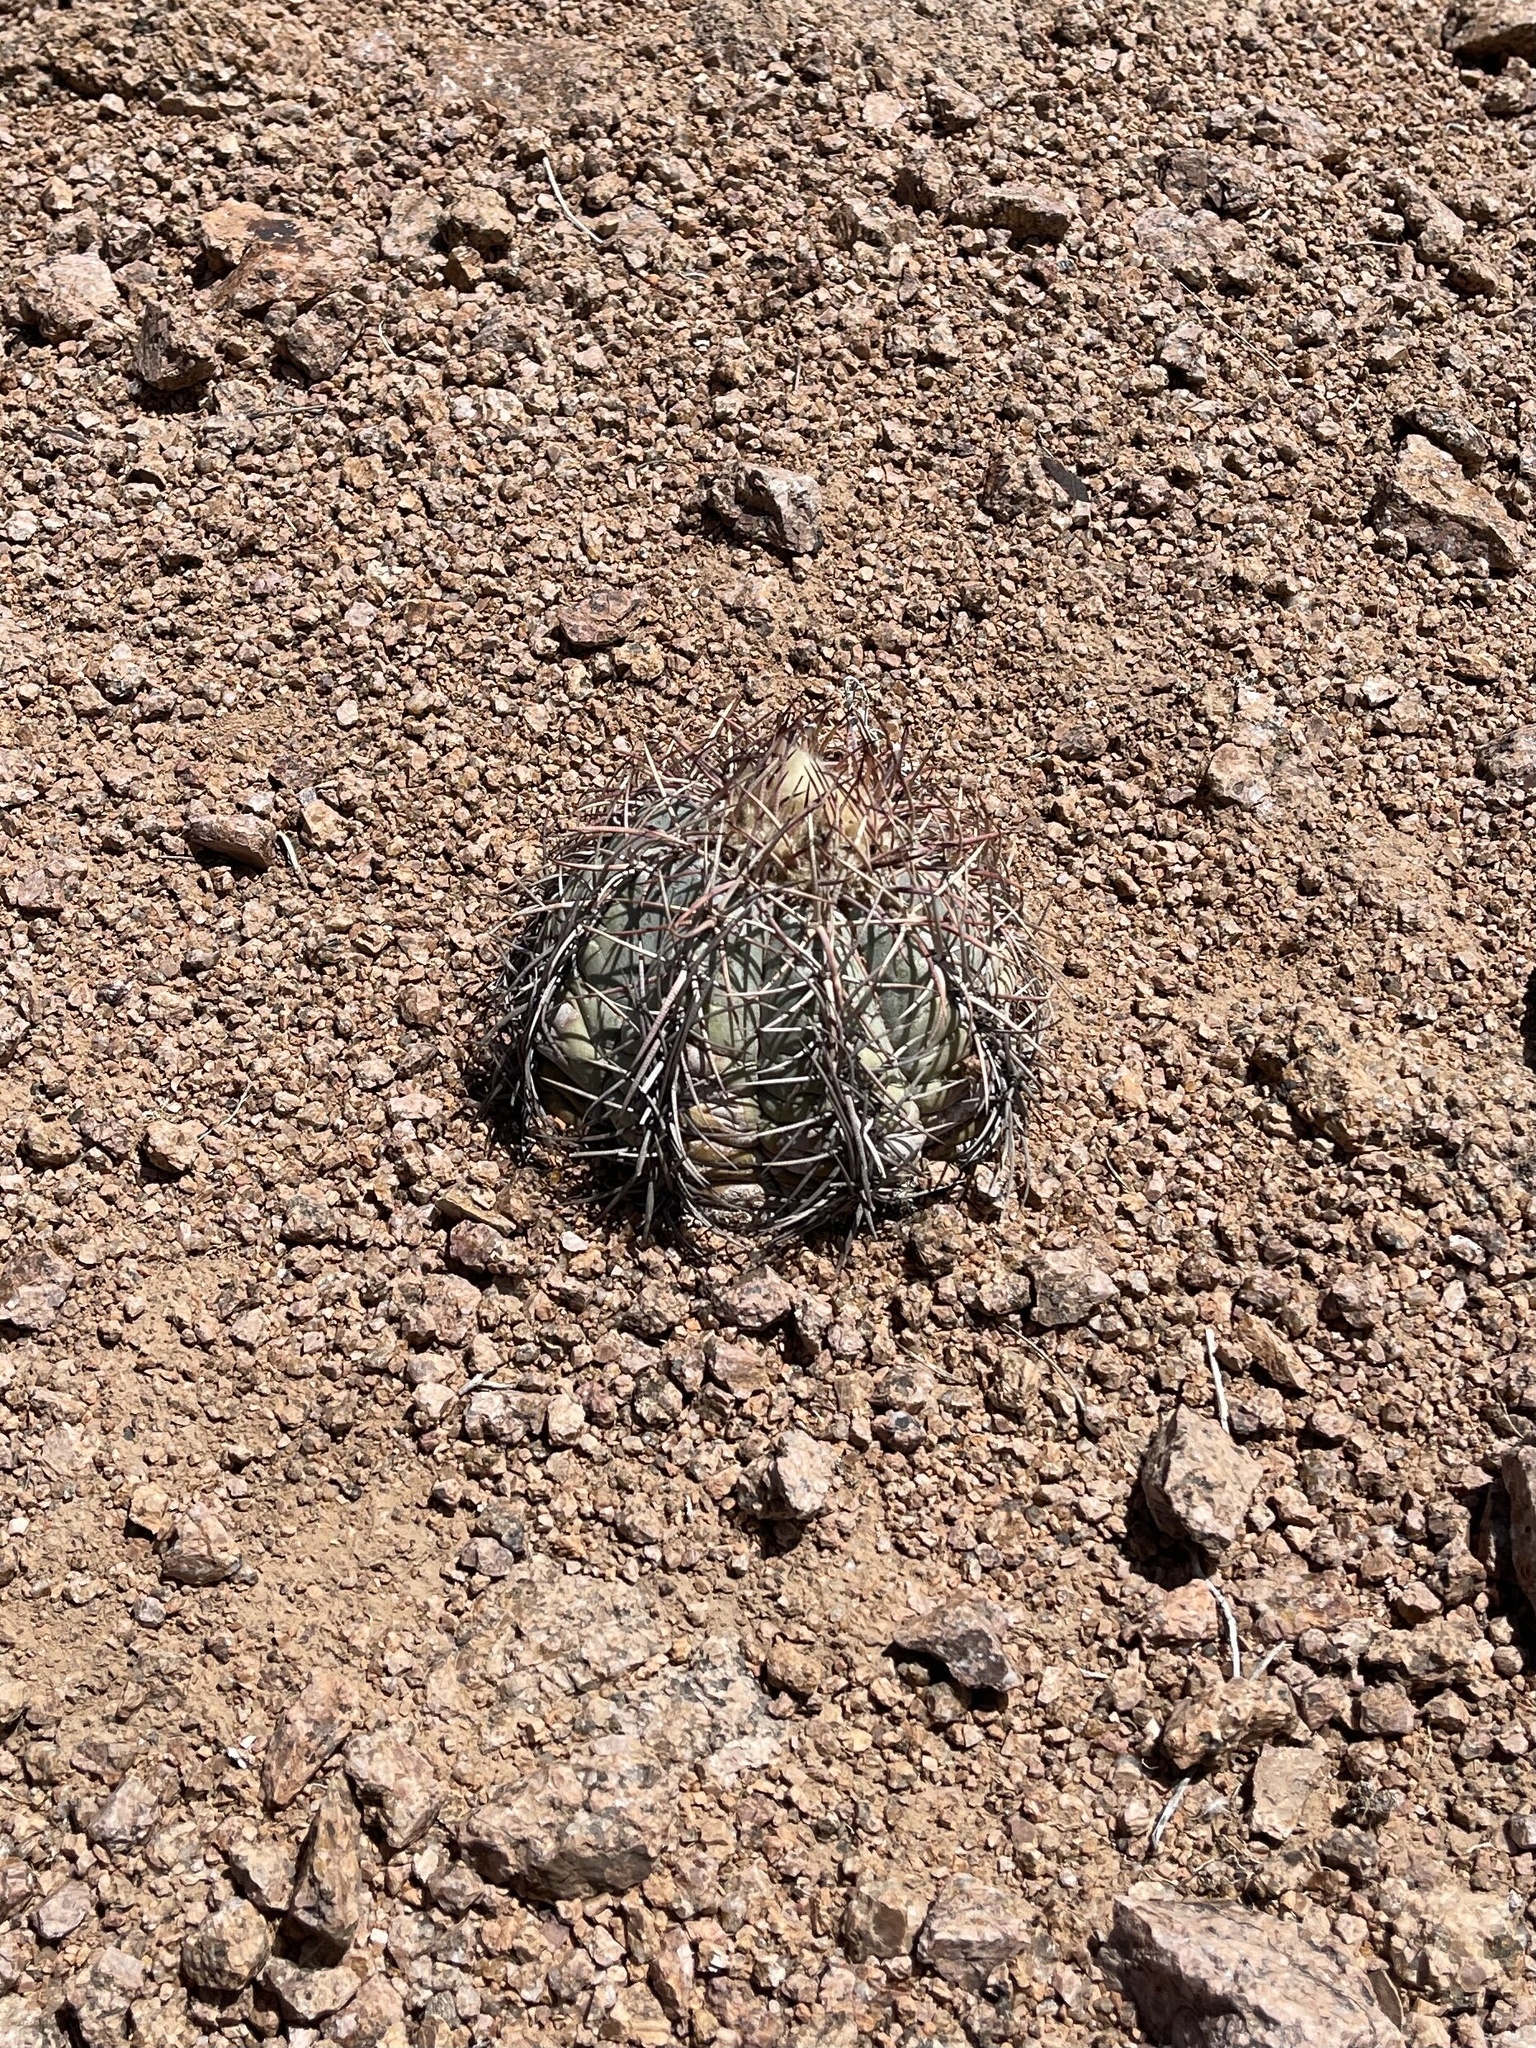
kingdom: Plantae
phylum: Tracheophyta
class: Magnoliopsida
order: Caryophyllales
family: Cactaceae
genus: Echinocactus
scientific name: Echinocactus horizonthalonius
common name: Devilshead
